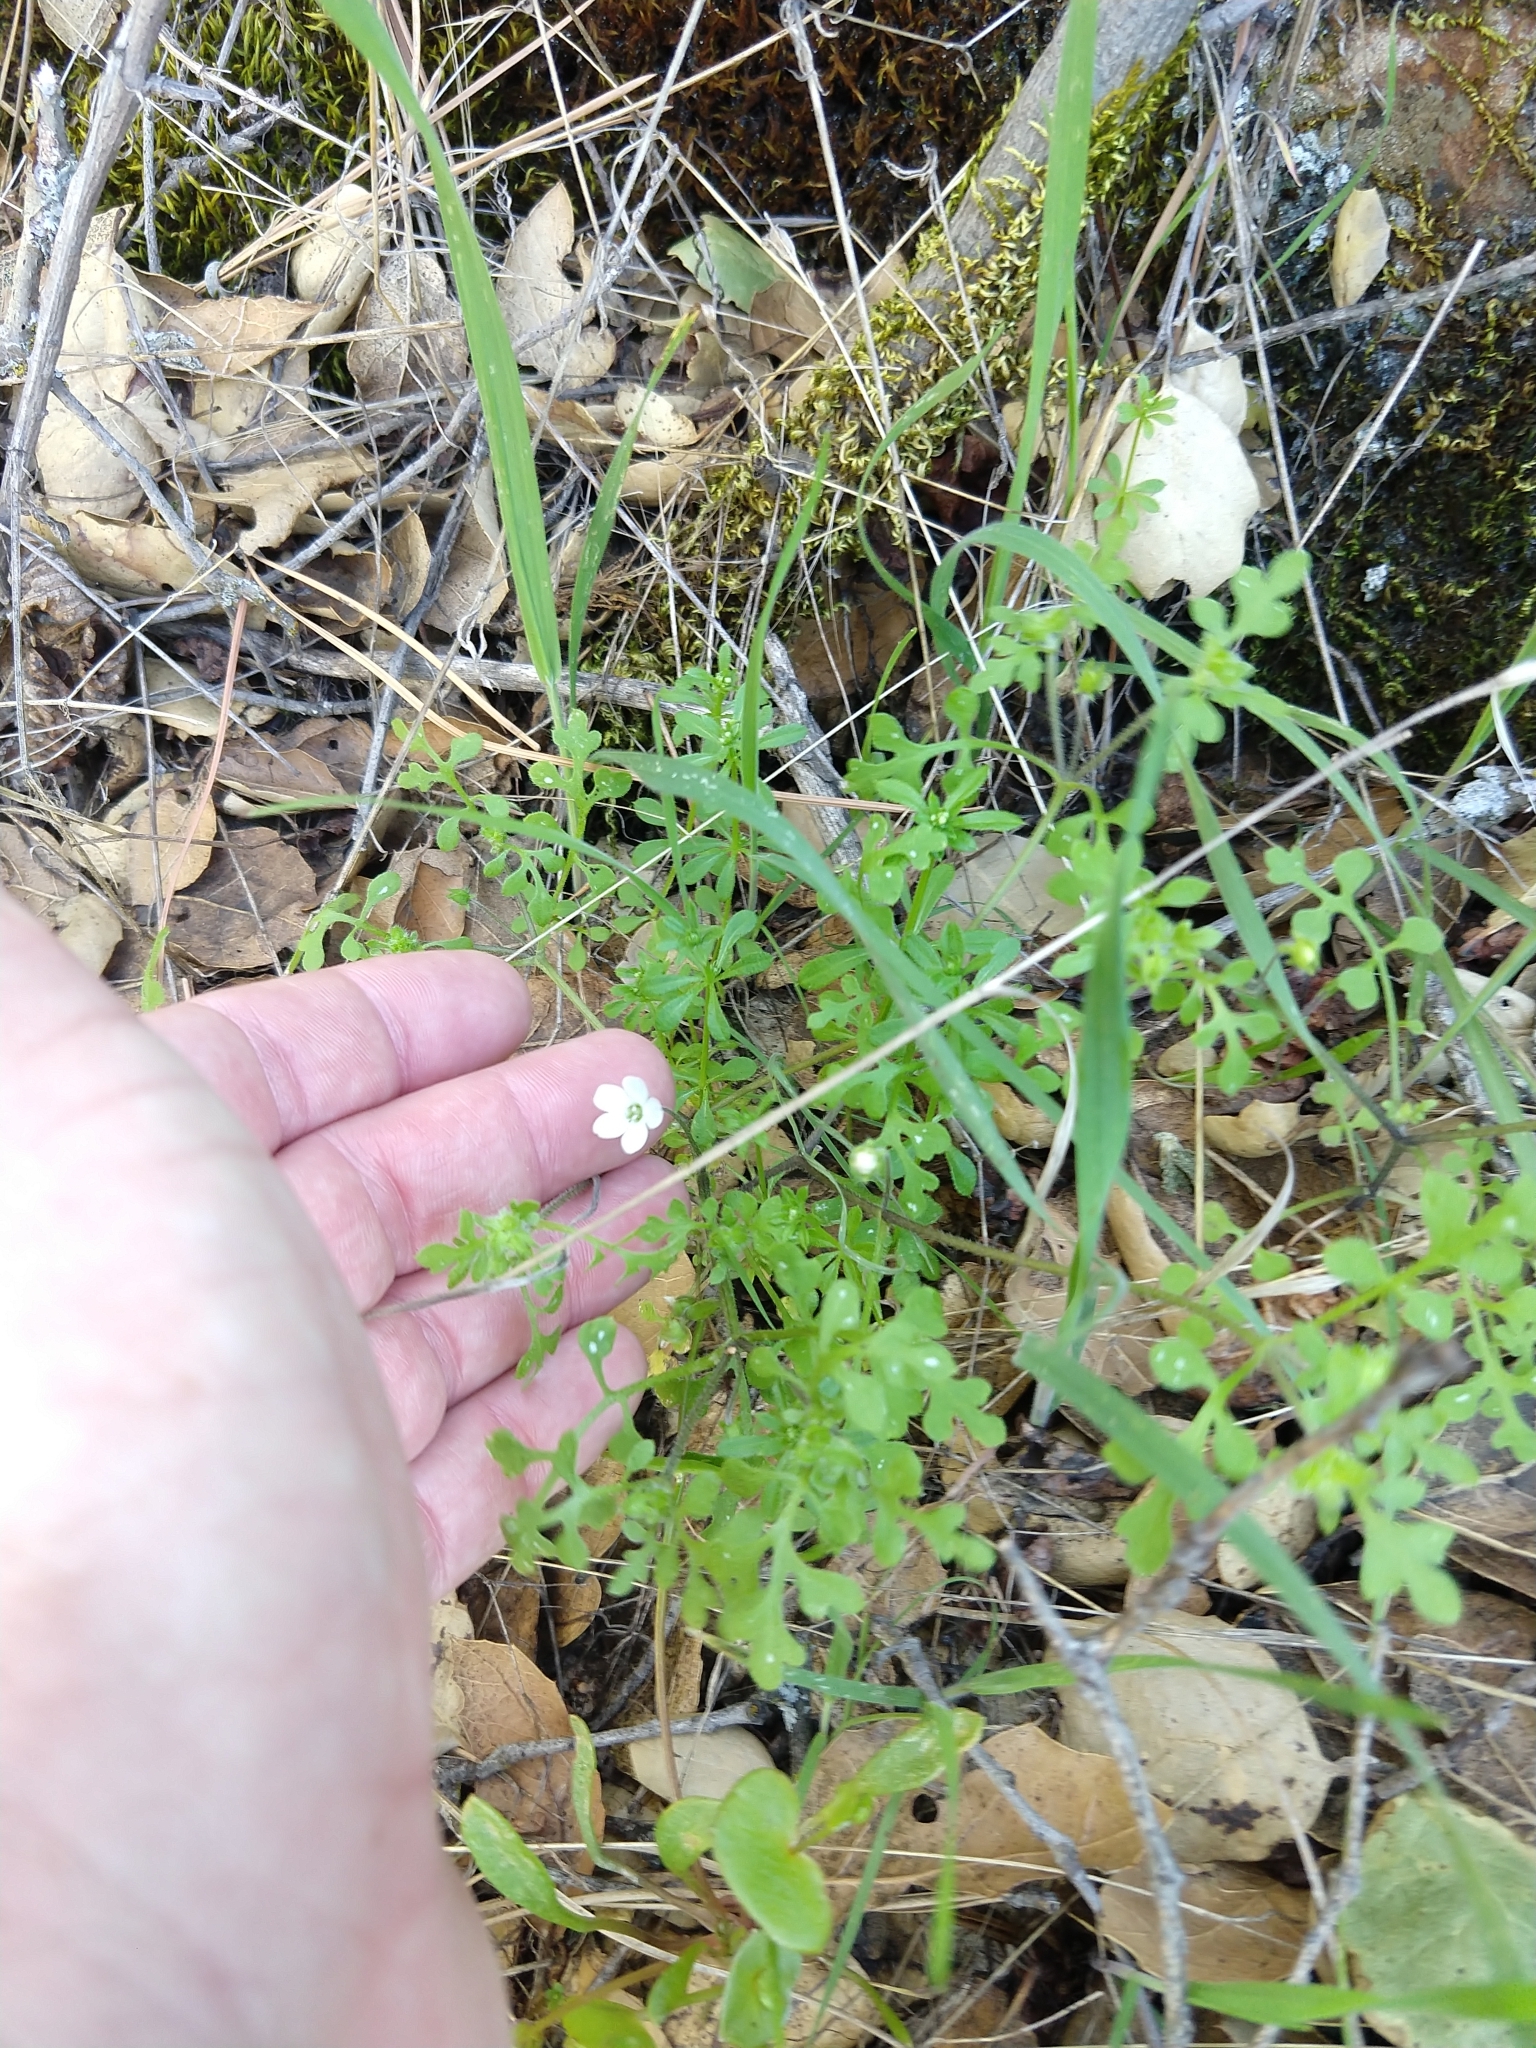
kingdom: Plantae
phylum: Tracheophyta
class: Magnoliopsida
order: Boraginales
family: Hydrophyllaceae
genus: Nemophila
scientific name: Nemophila heterophylla
